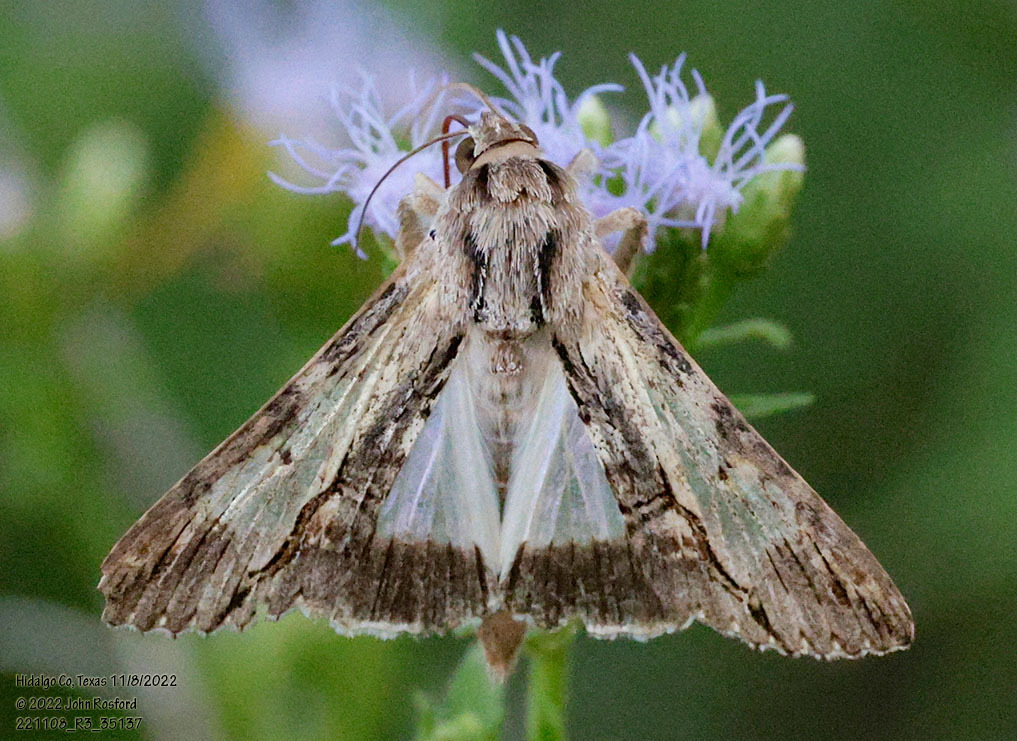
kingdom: Animalia
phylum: Arthropoda
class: Insecta
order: Lepidoptera
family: Erebidae
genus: Melipotis
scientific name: Melipotis acontioides
